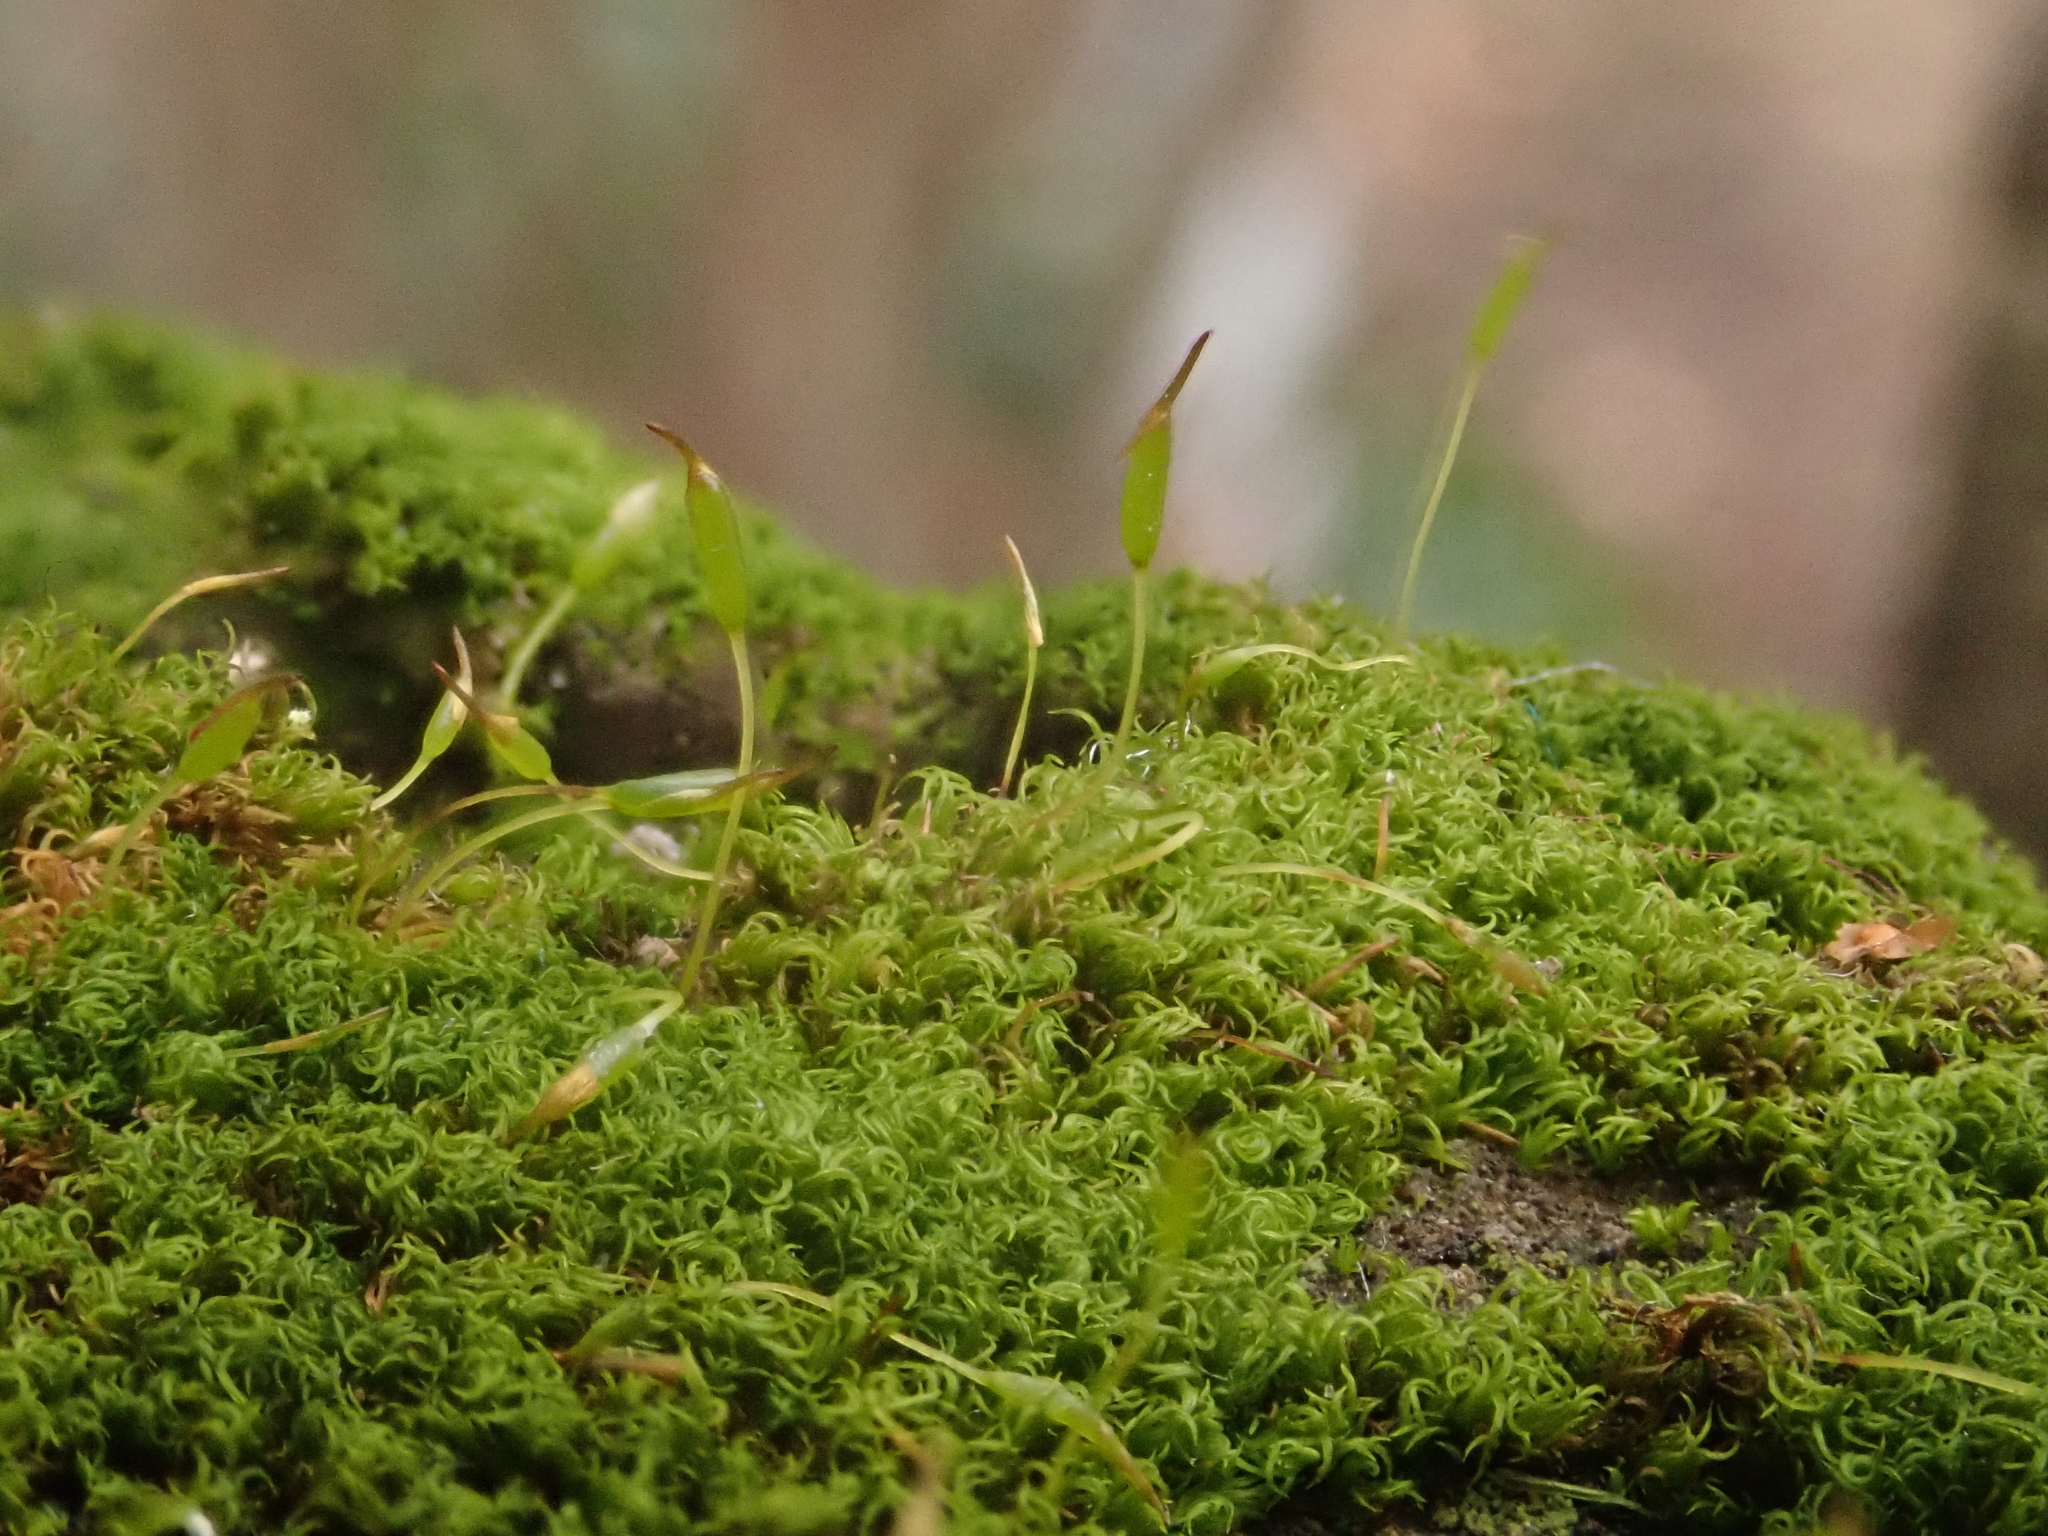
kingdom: Plantae
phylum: Bryophyta
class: Bryopsida
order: Dicranales
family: Rhabdoweisiaceae
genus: Dicranoweisia
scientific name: Dicranoweisia cirrata
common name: Common pincushion
